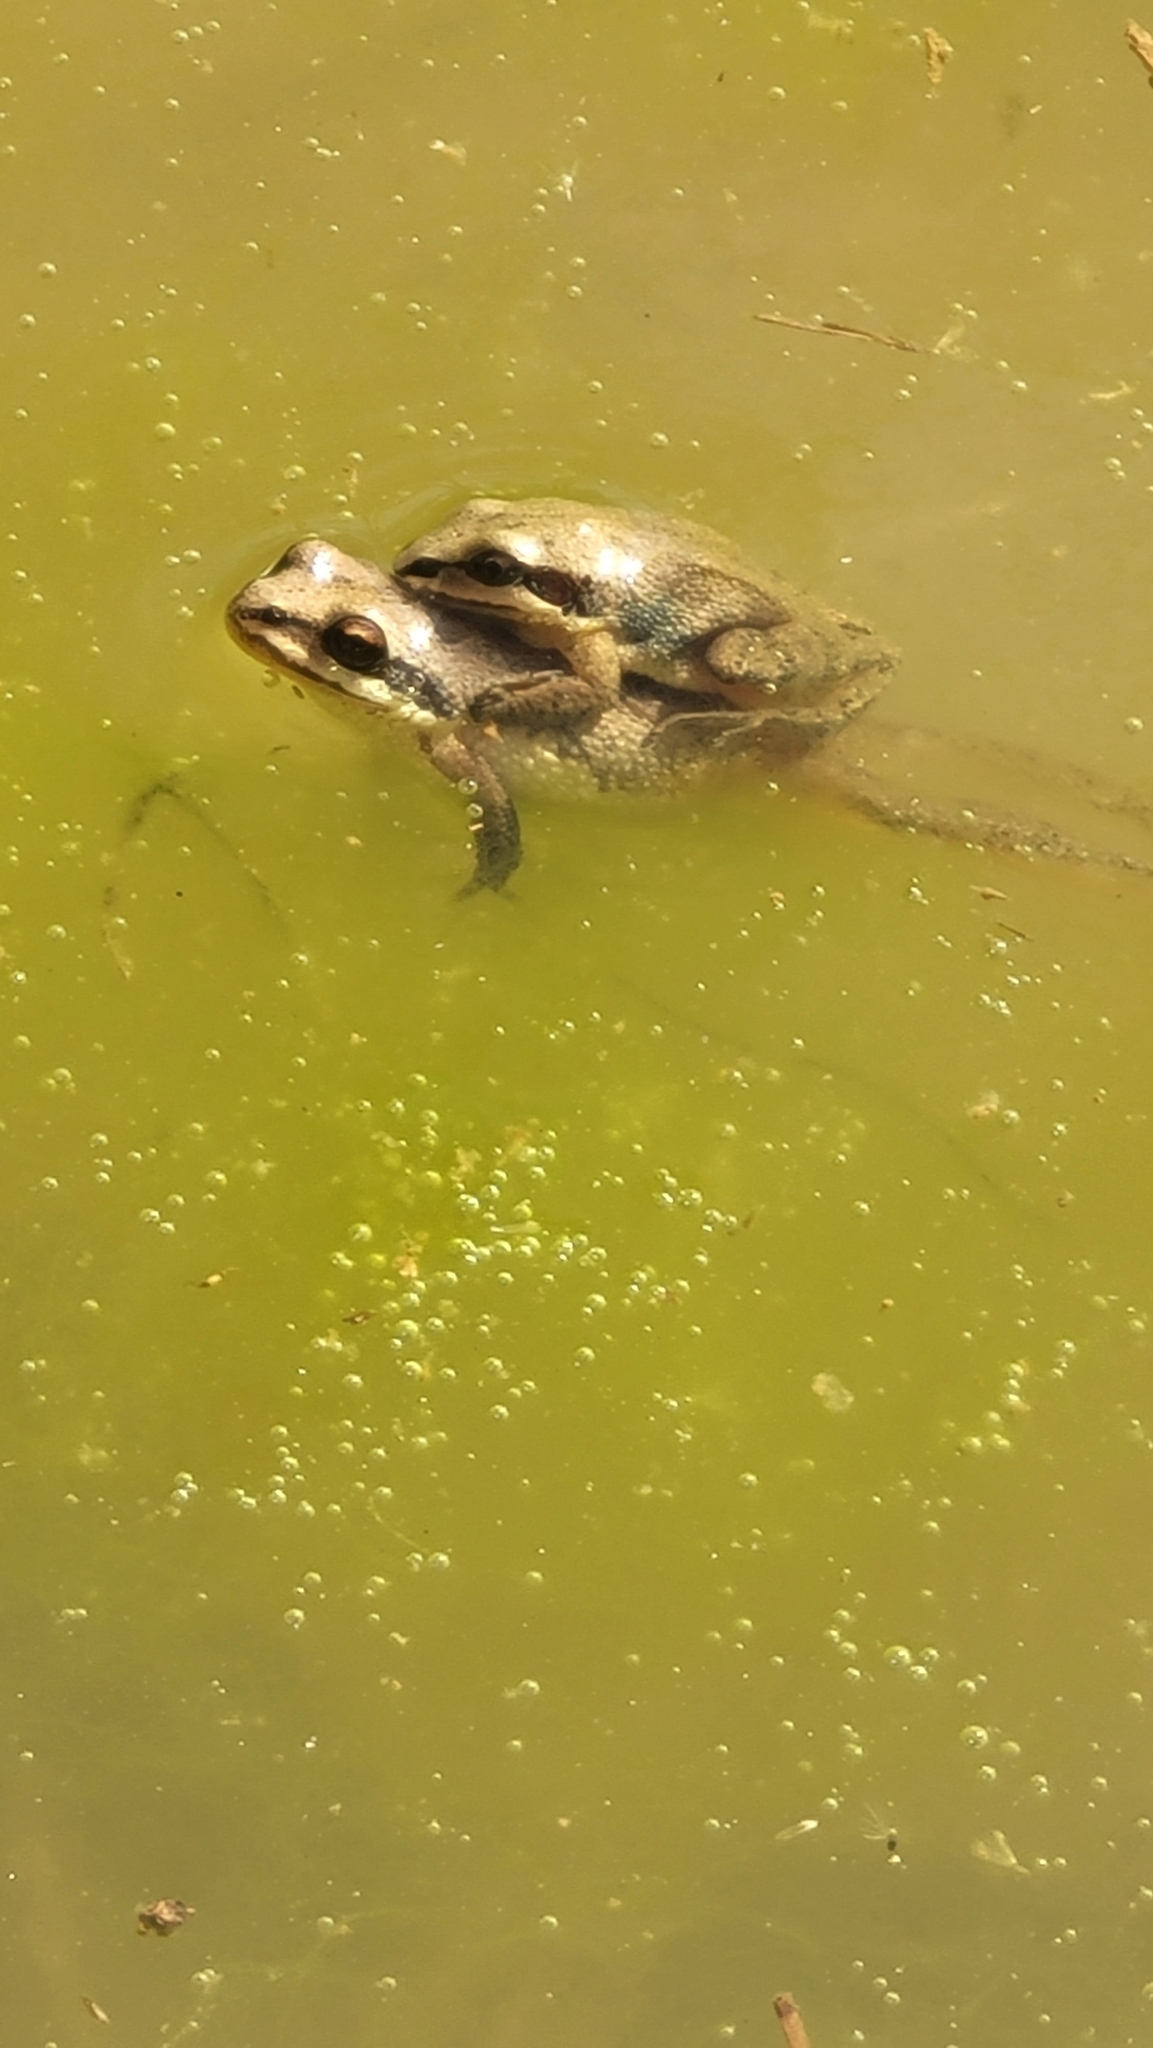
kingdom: Animalia
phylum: Chordata
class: Amphibia
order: Anura
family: Hylidae
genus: Pseudacris
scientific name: Pseudacris feriarum
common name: Upland chorus frog
